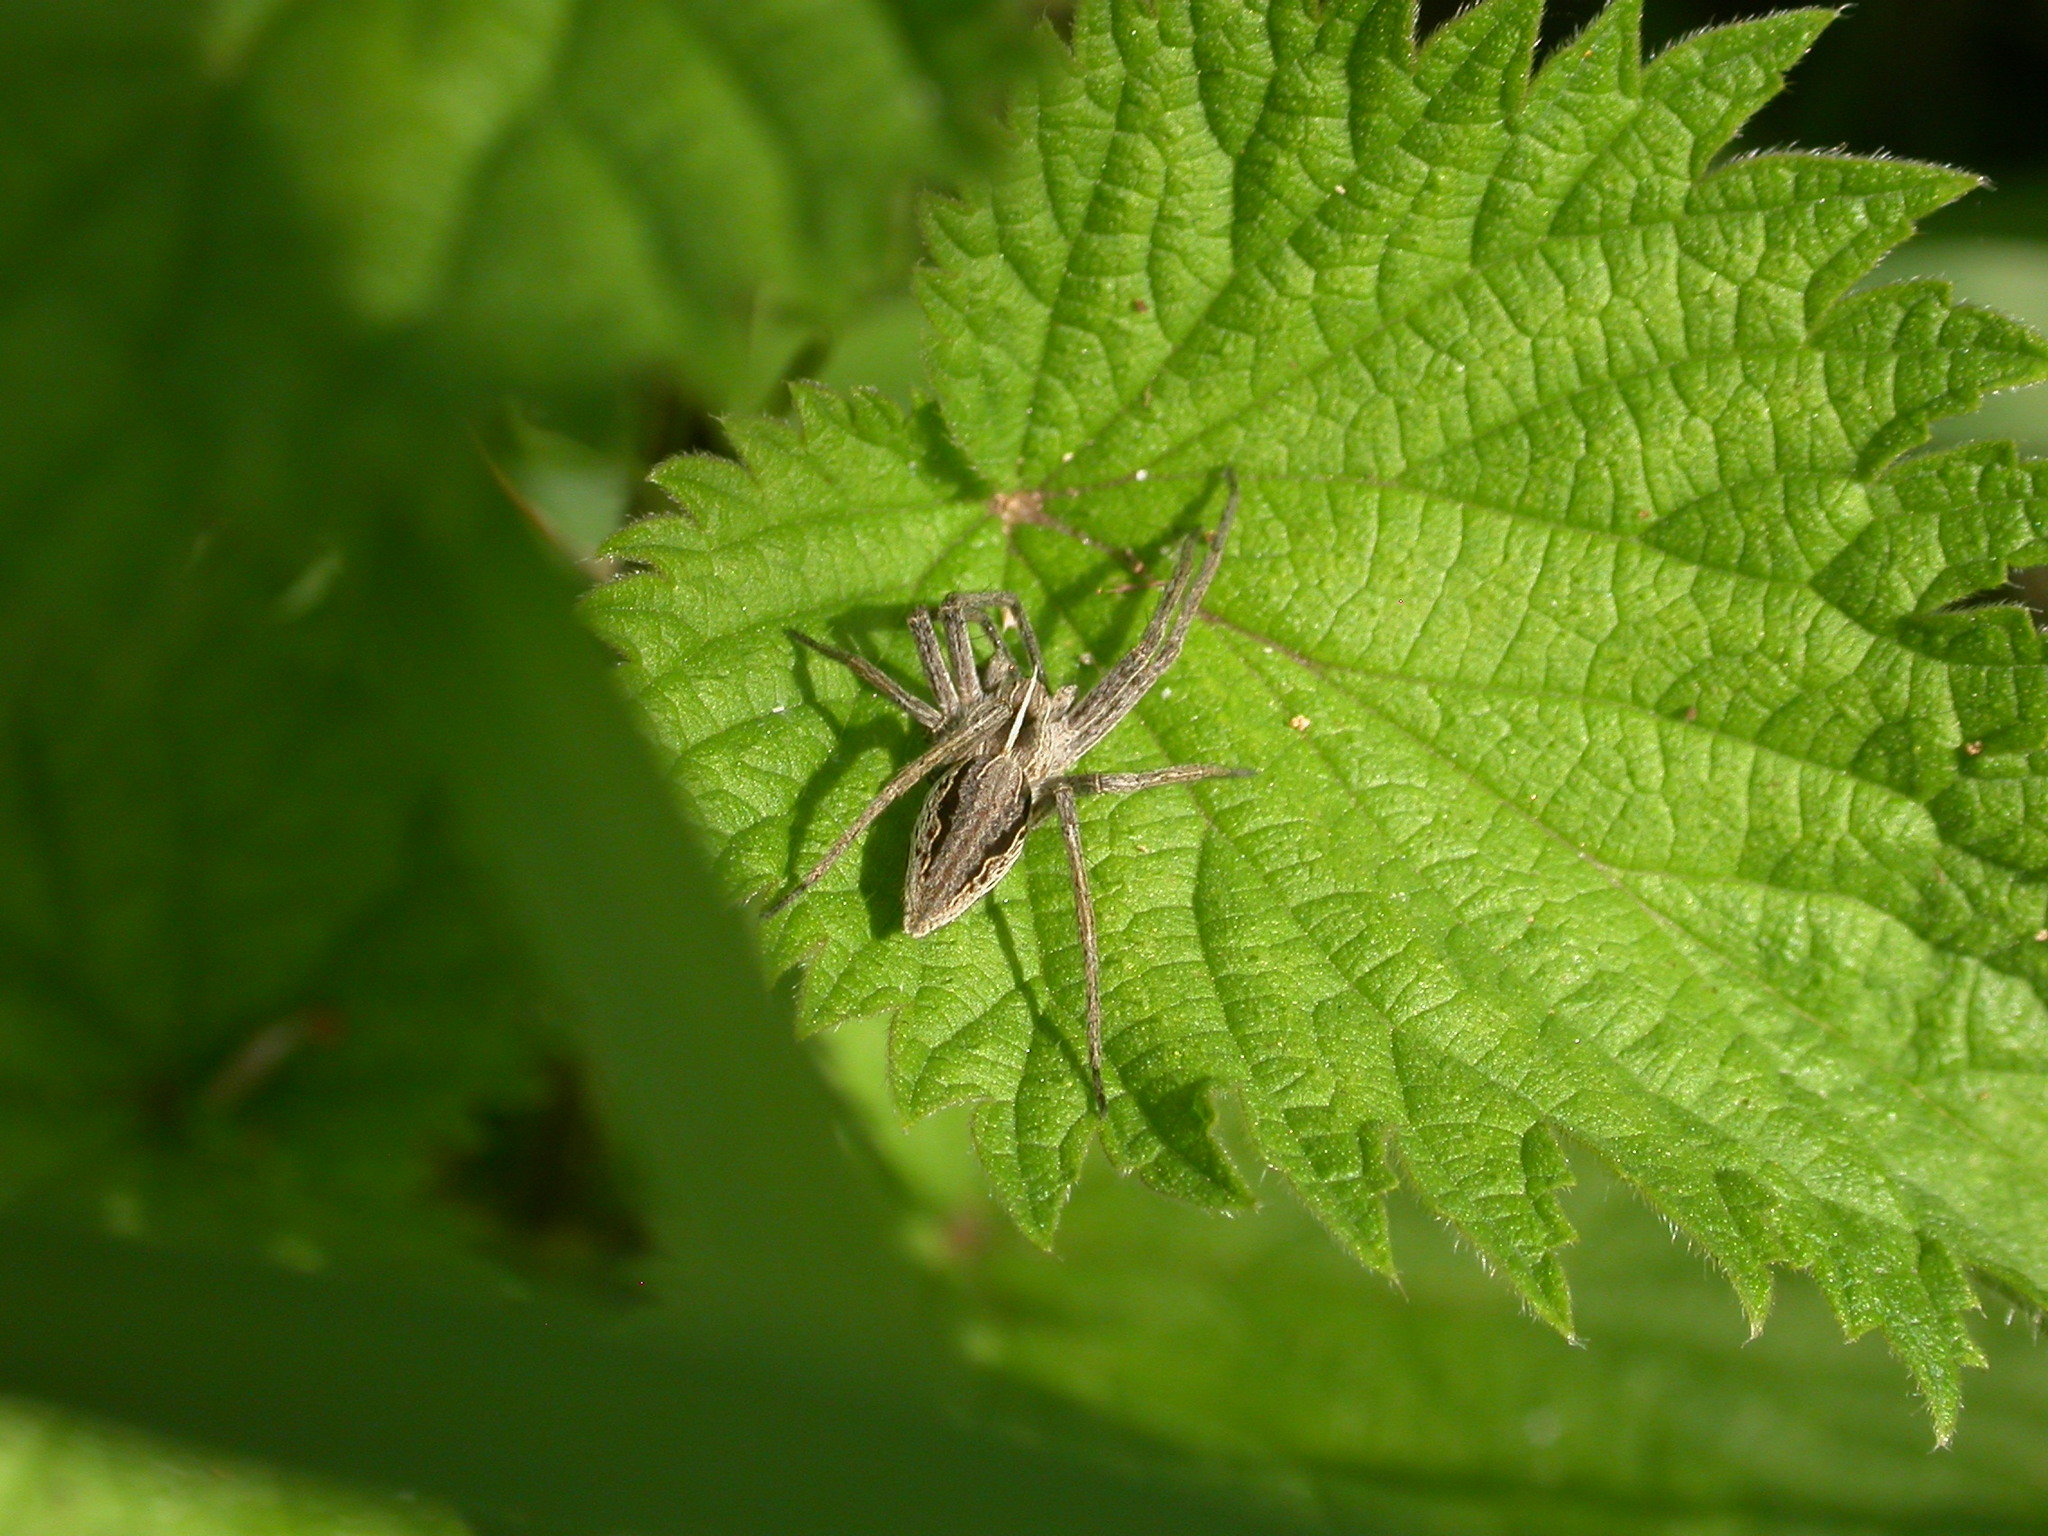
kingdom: Animalia
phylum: Arthropoda
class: Arachnida
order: Araneae
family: Pisauridae
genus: Pisaura
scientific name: Pisaura mirabilis
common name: Tent spider
